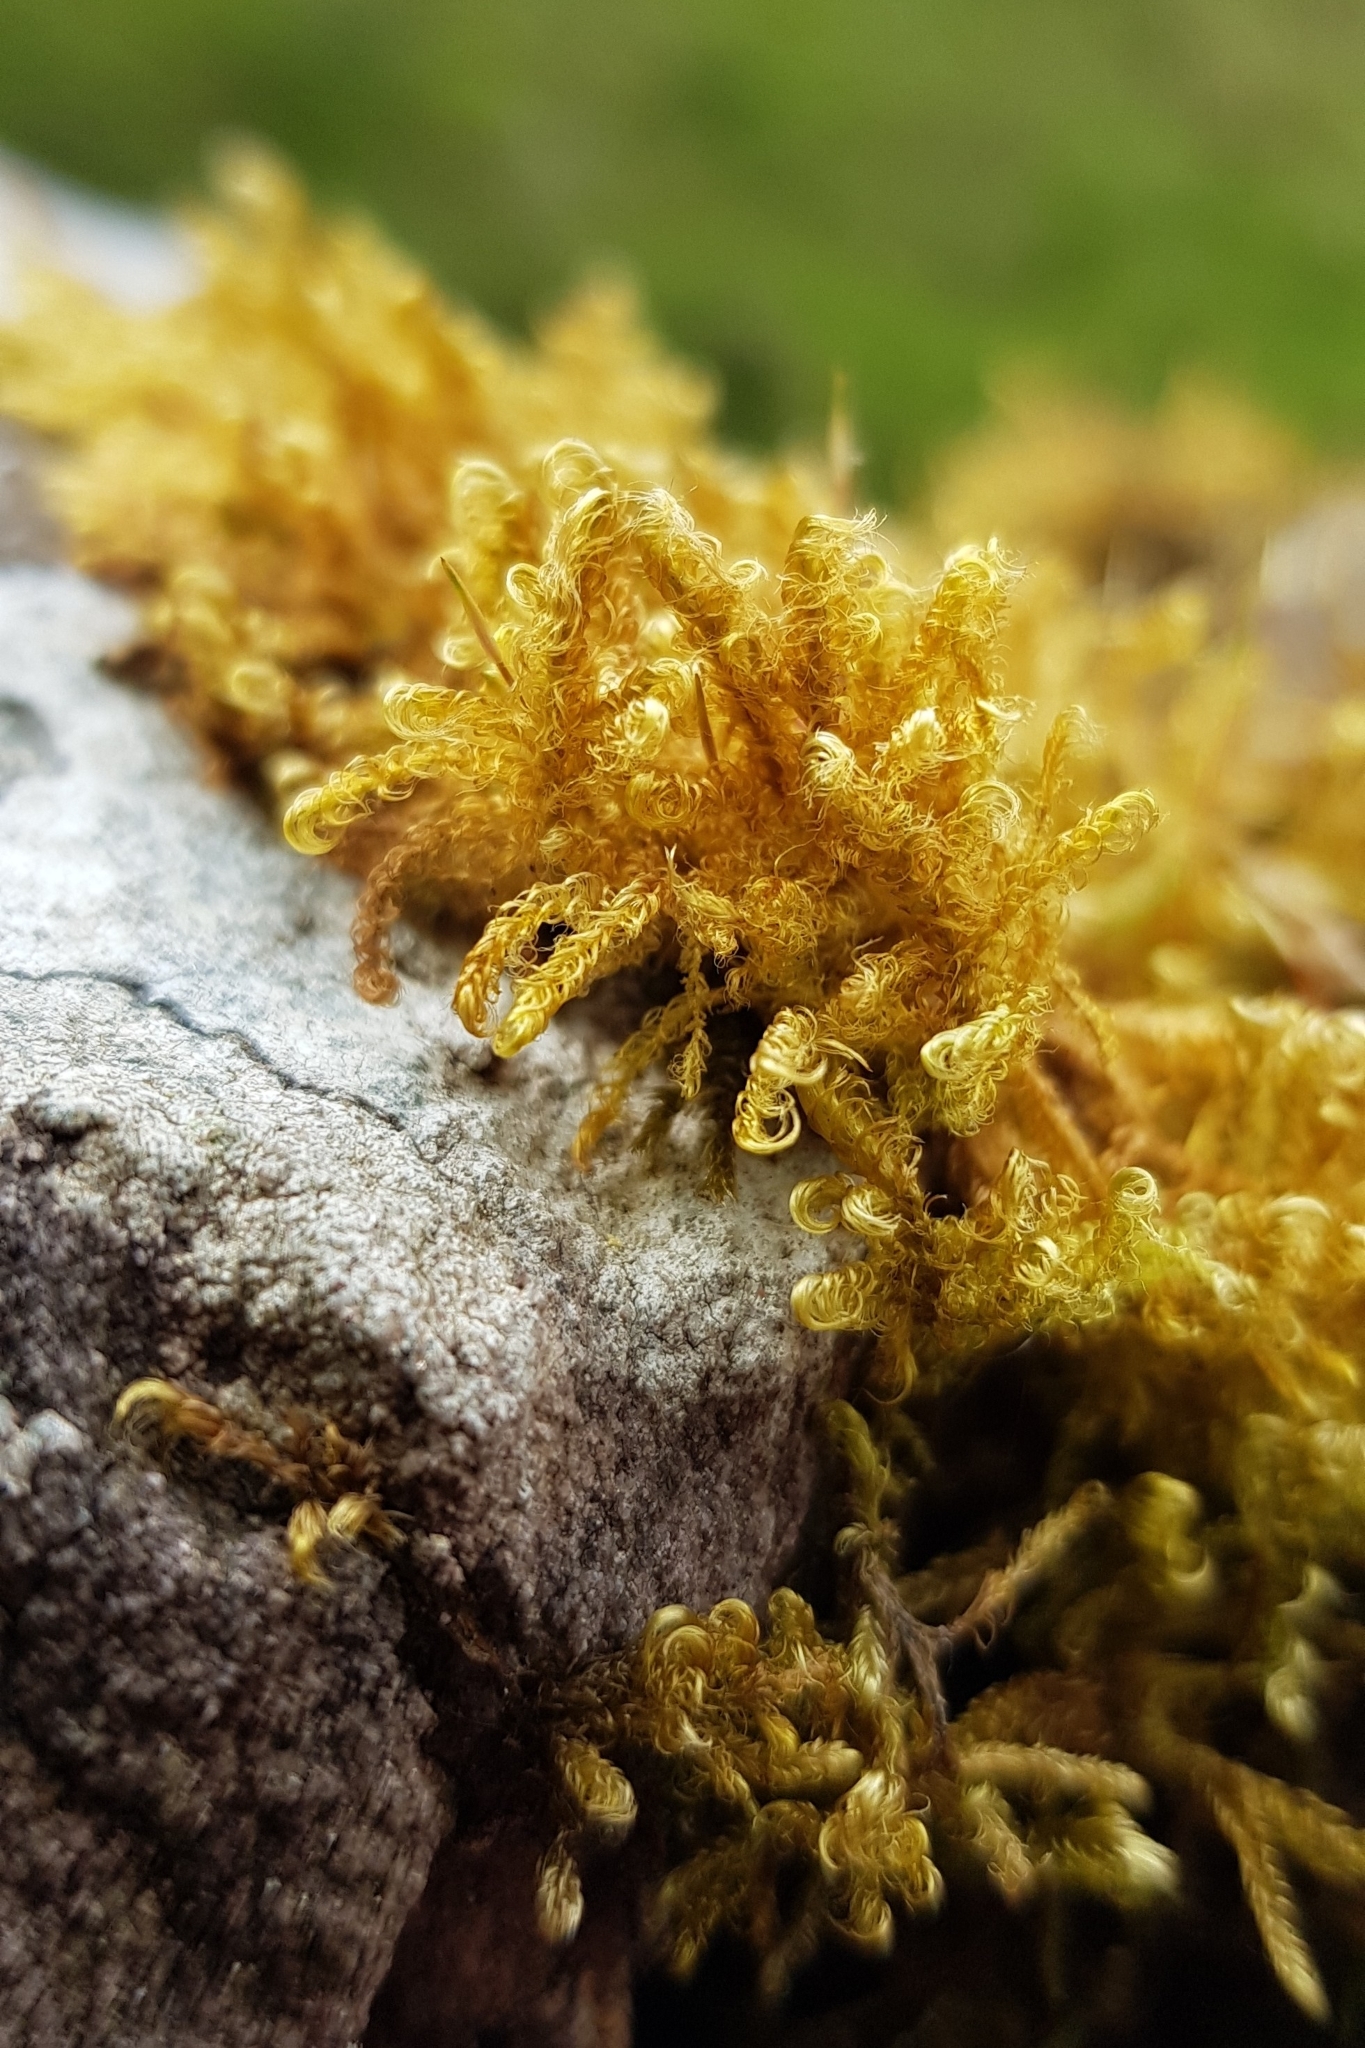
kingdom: Plantae
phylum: Bryophyta
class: Bryopsida
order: Hypnales
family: Scorpidiaceae
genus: Sanionia
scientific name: Sanionia uncinata
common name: Sickle moss
